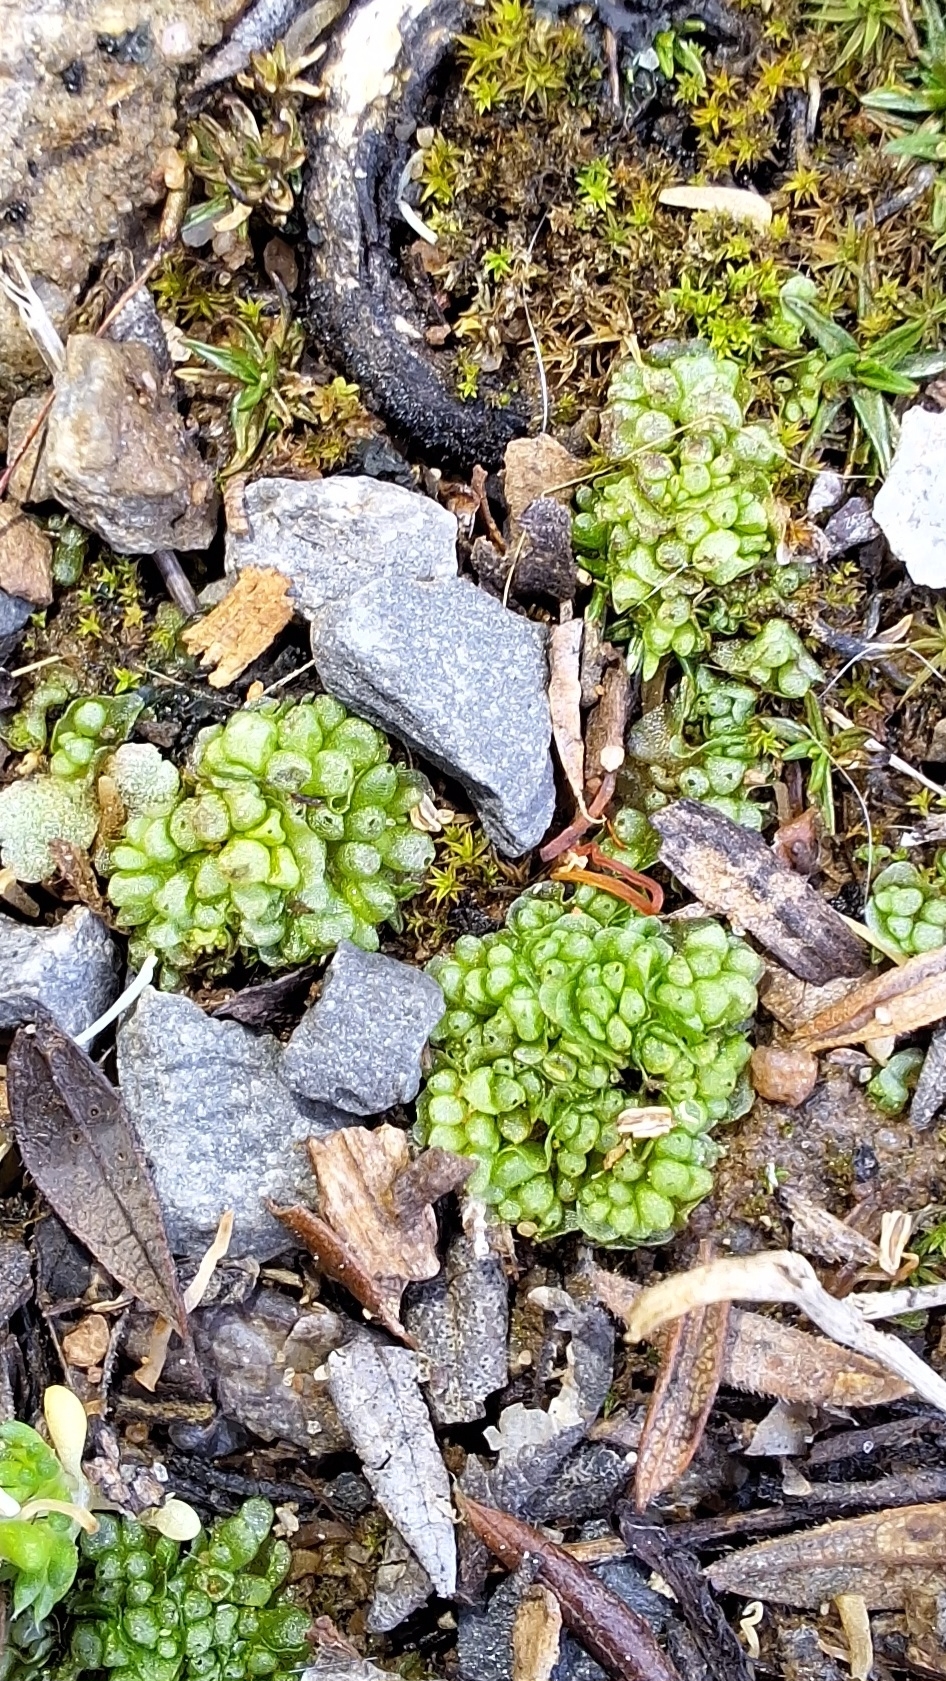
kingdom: Plantae
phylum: Marchantiophyta
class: Marchantiopsida
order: Sphaerocarpales
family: Sphaerocarpaceae
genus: Sphaerocarpos
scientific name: Sphaerocarpos texanus
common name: Texas balloonwort
